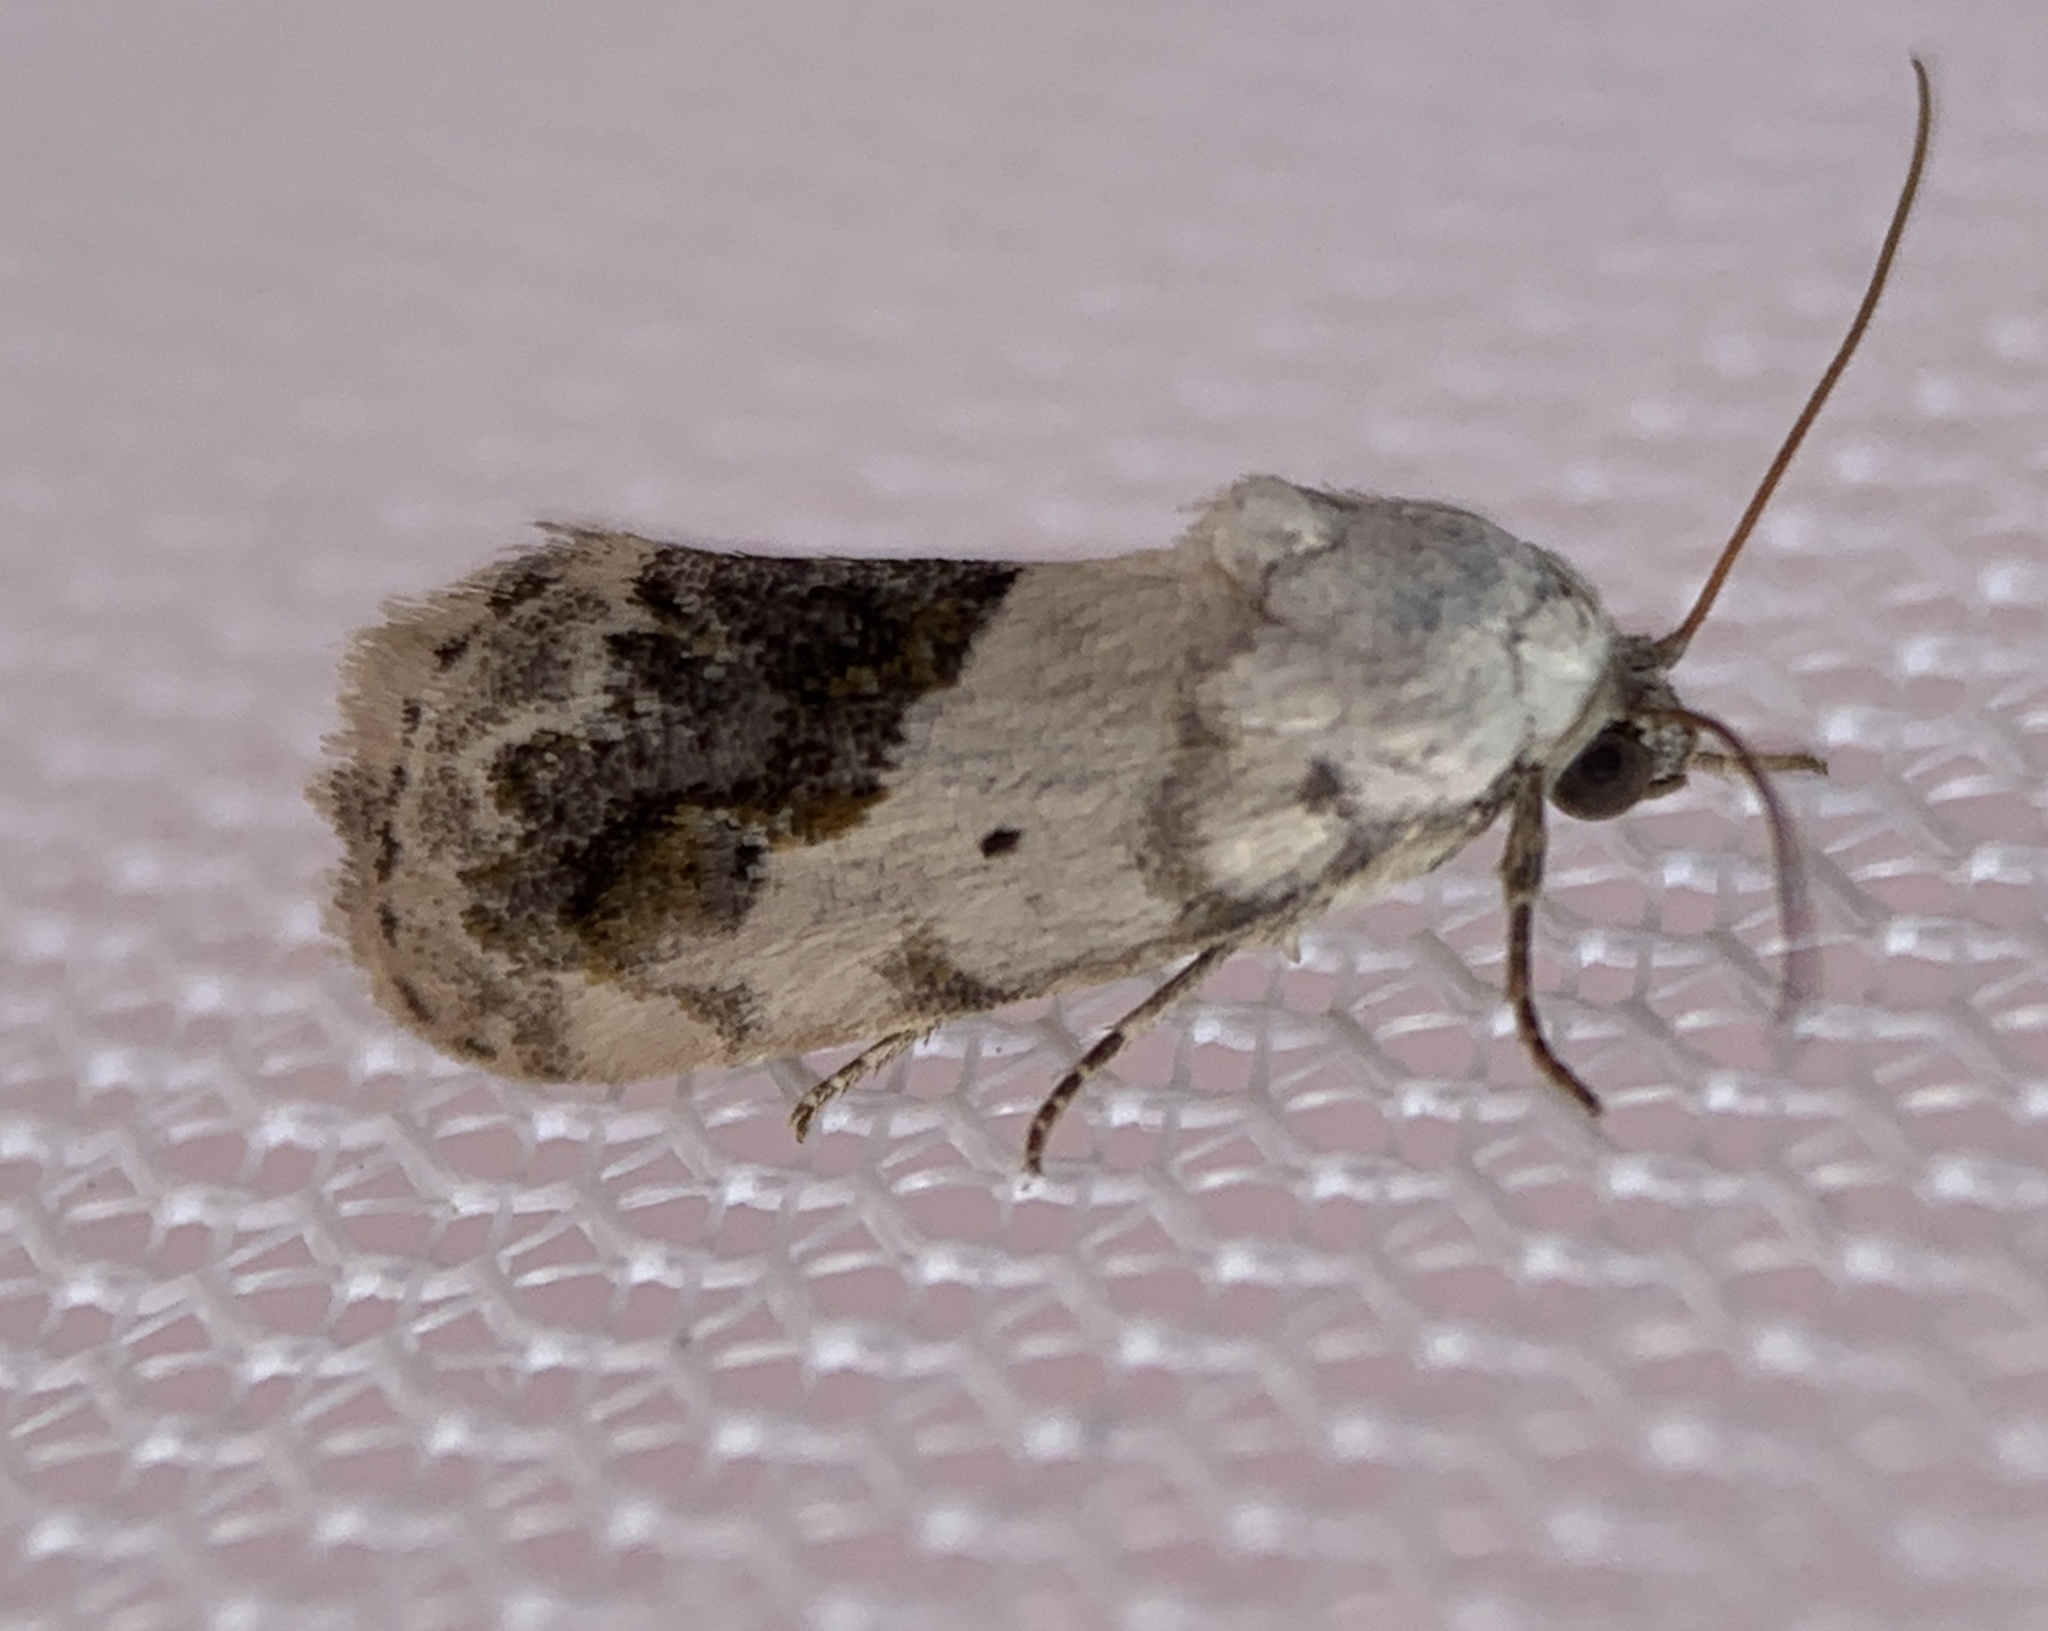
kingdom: Animalia
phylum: Arthropoda
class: Insecta
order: Lepidoptera
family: Noctuidae
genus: Acontia
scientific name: Acontia erastrioides
